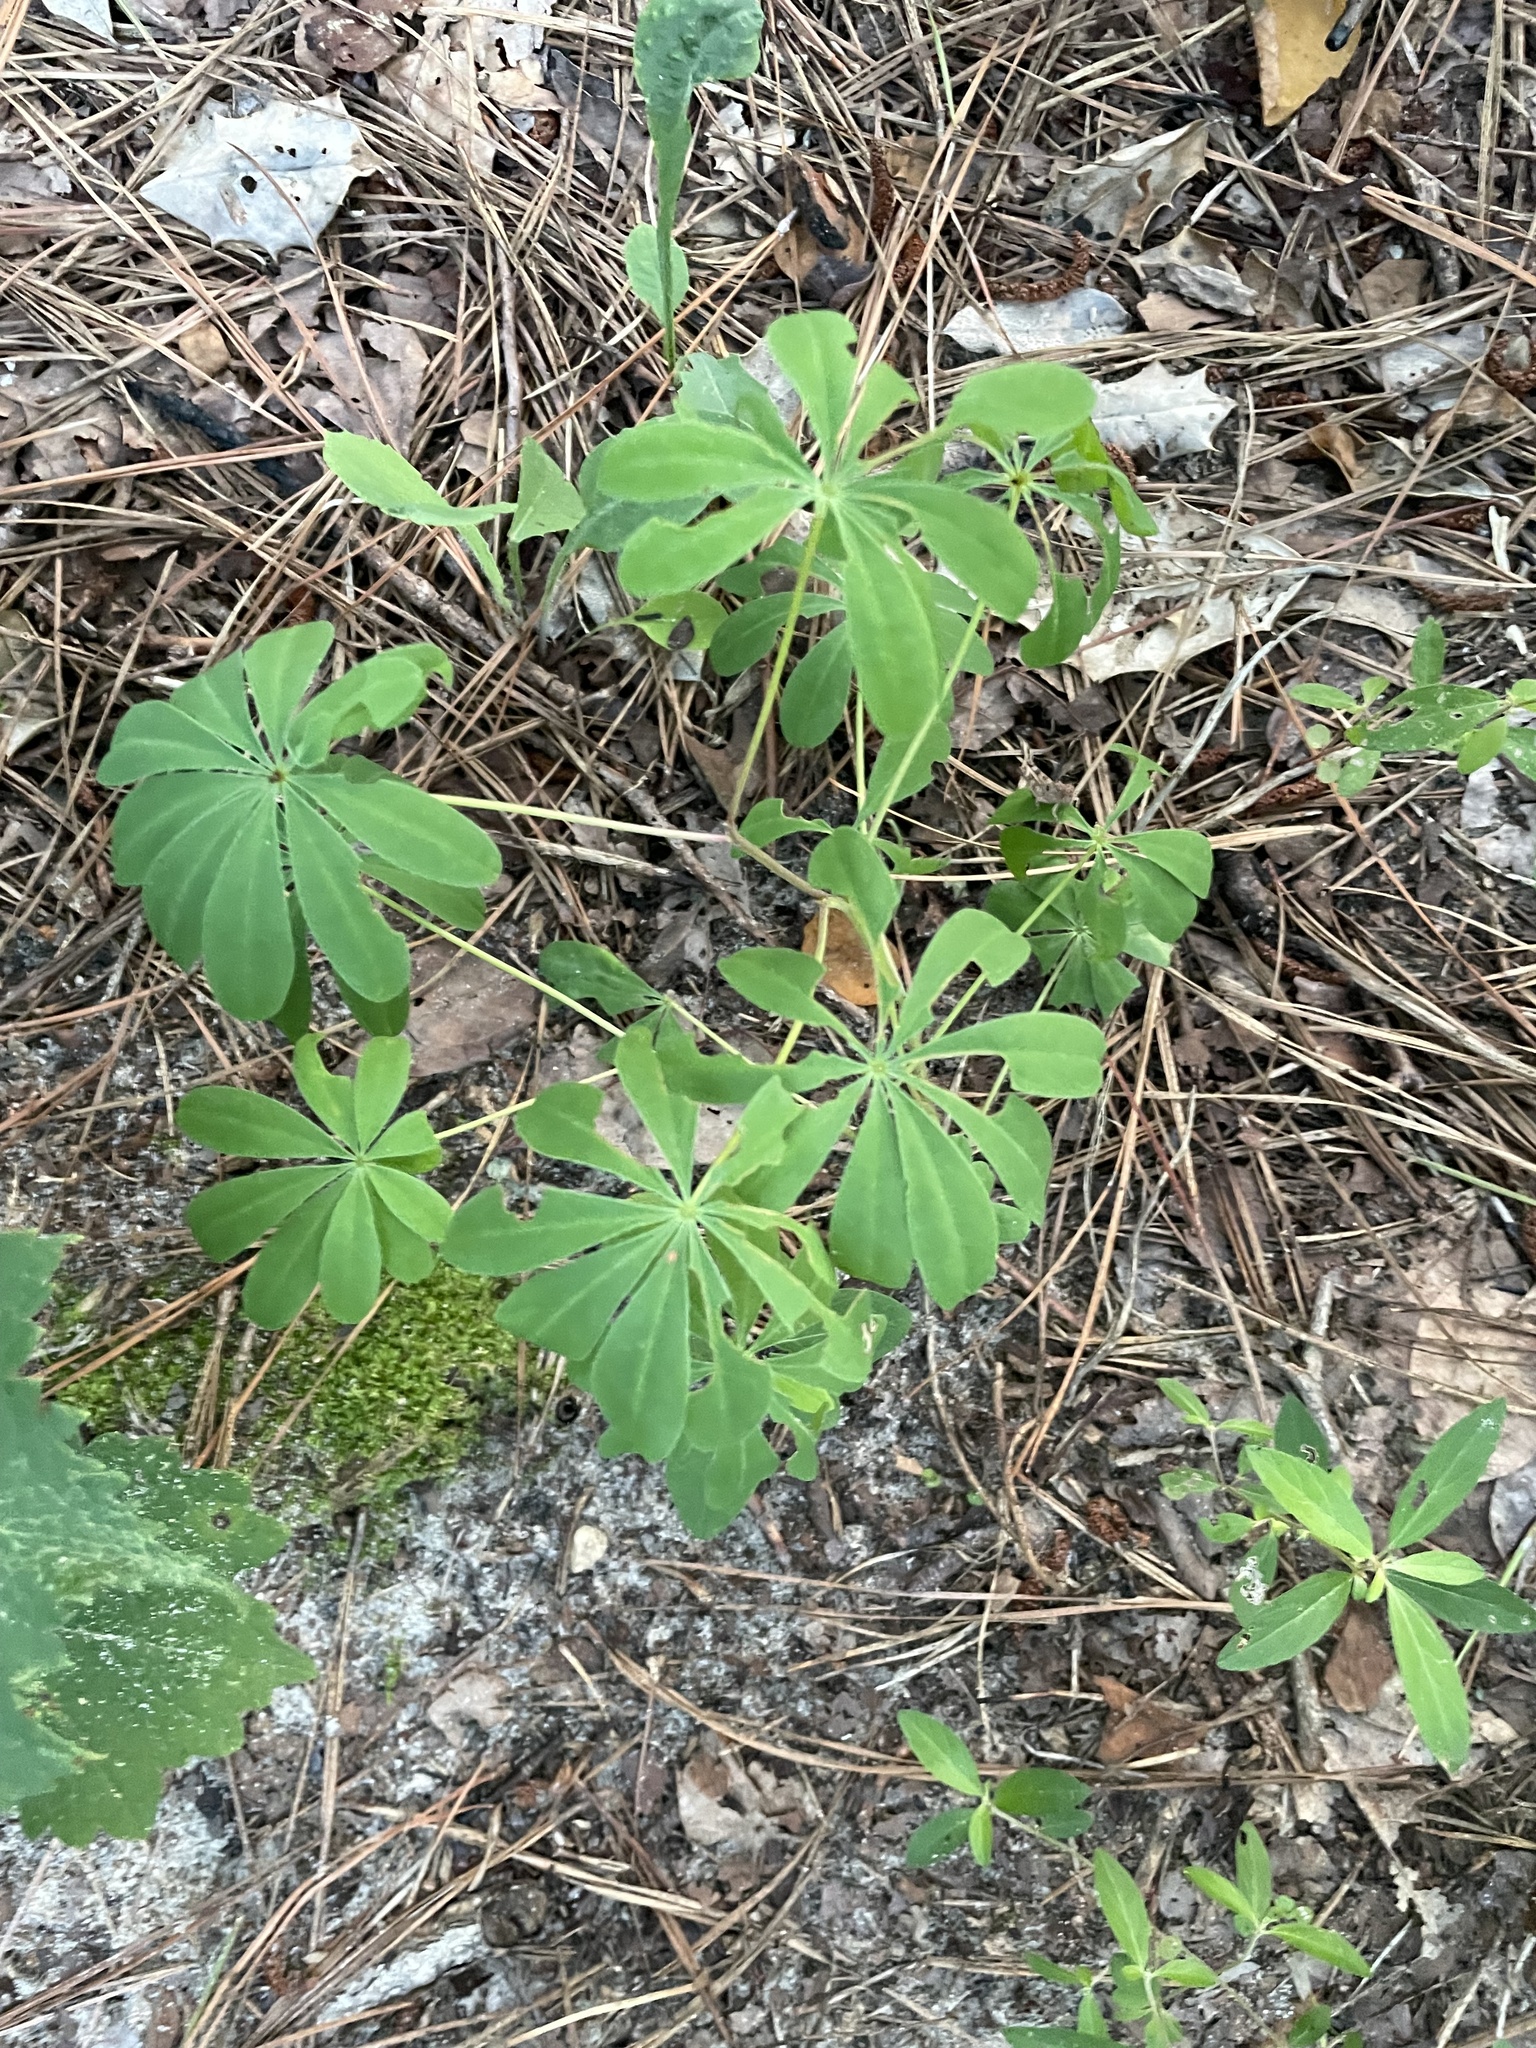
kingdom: Plantae
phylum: Tracheophyta
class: Magnoliopsida
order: Fabales
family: Fabaceae
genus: Lupinus
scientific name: Lupinus perennis
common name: Sundial lupine
